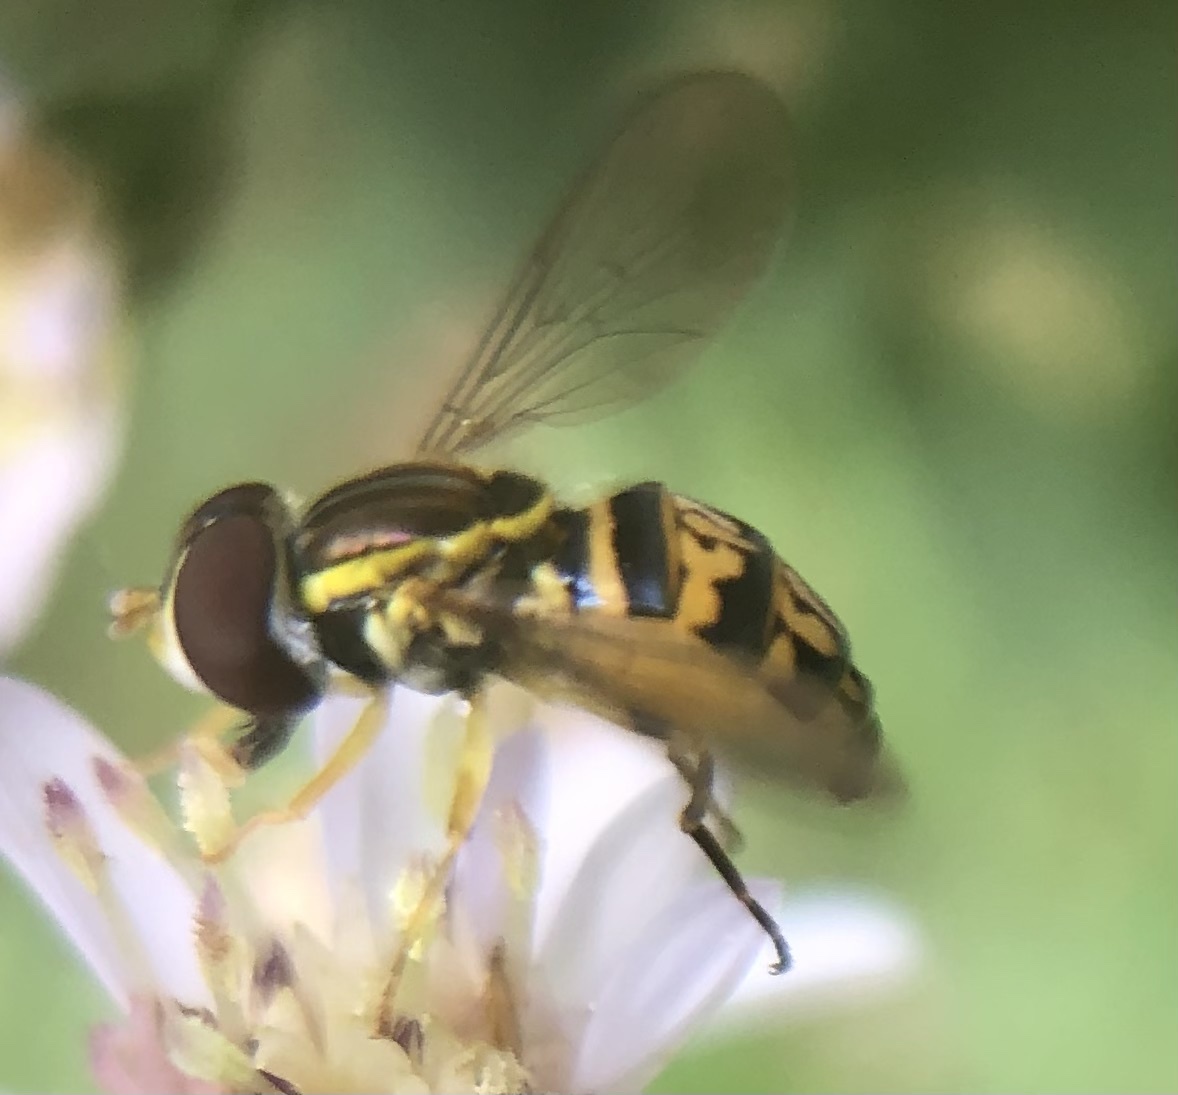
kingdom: Animalia
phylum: Arthropoda
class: Insecta
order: Diptera
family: Syrphidae
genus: Toxomerus
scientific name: Toxomerus geminatus
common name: Eastern calligrapher
